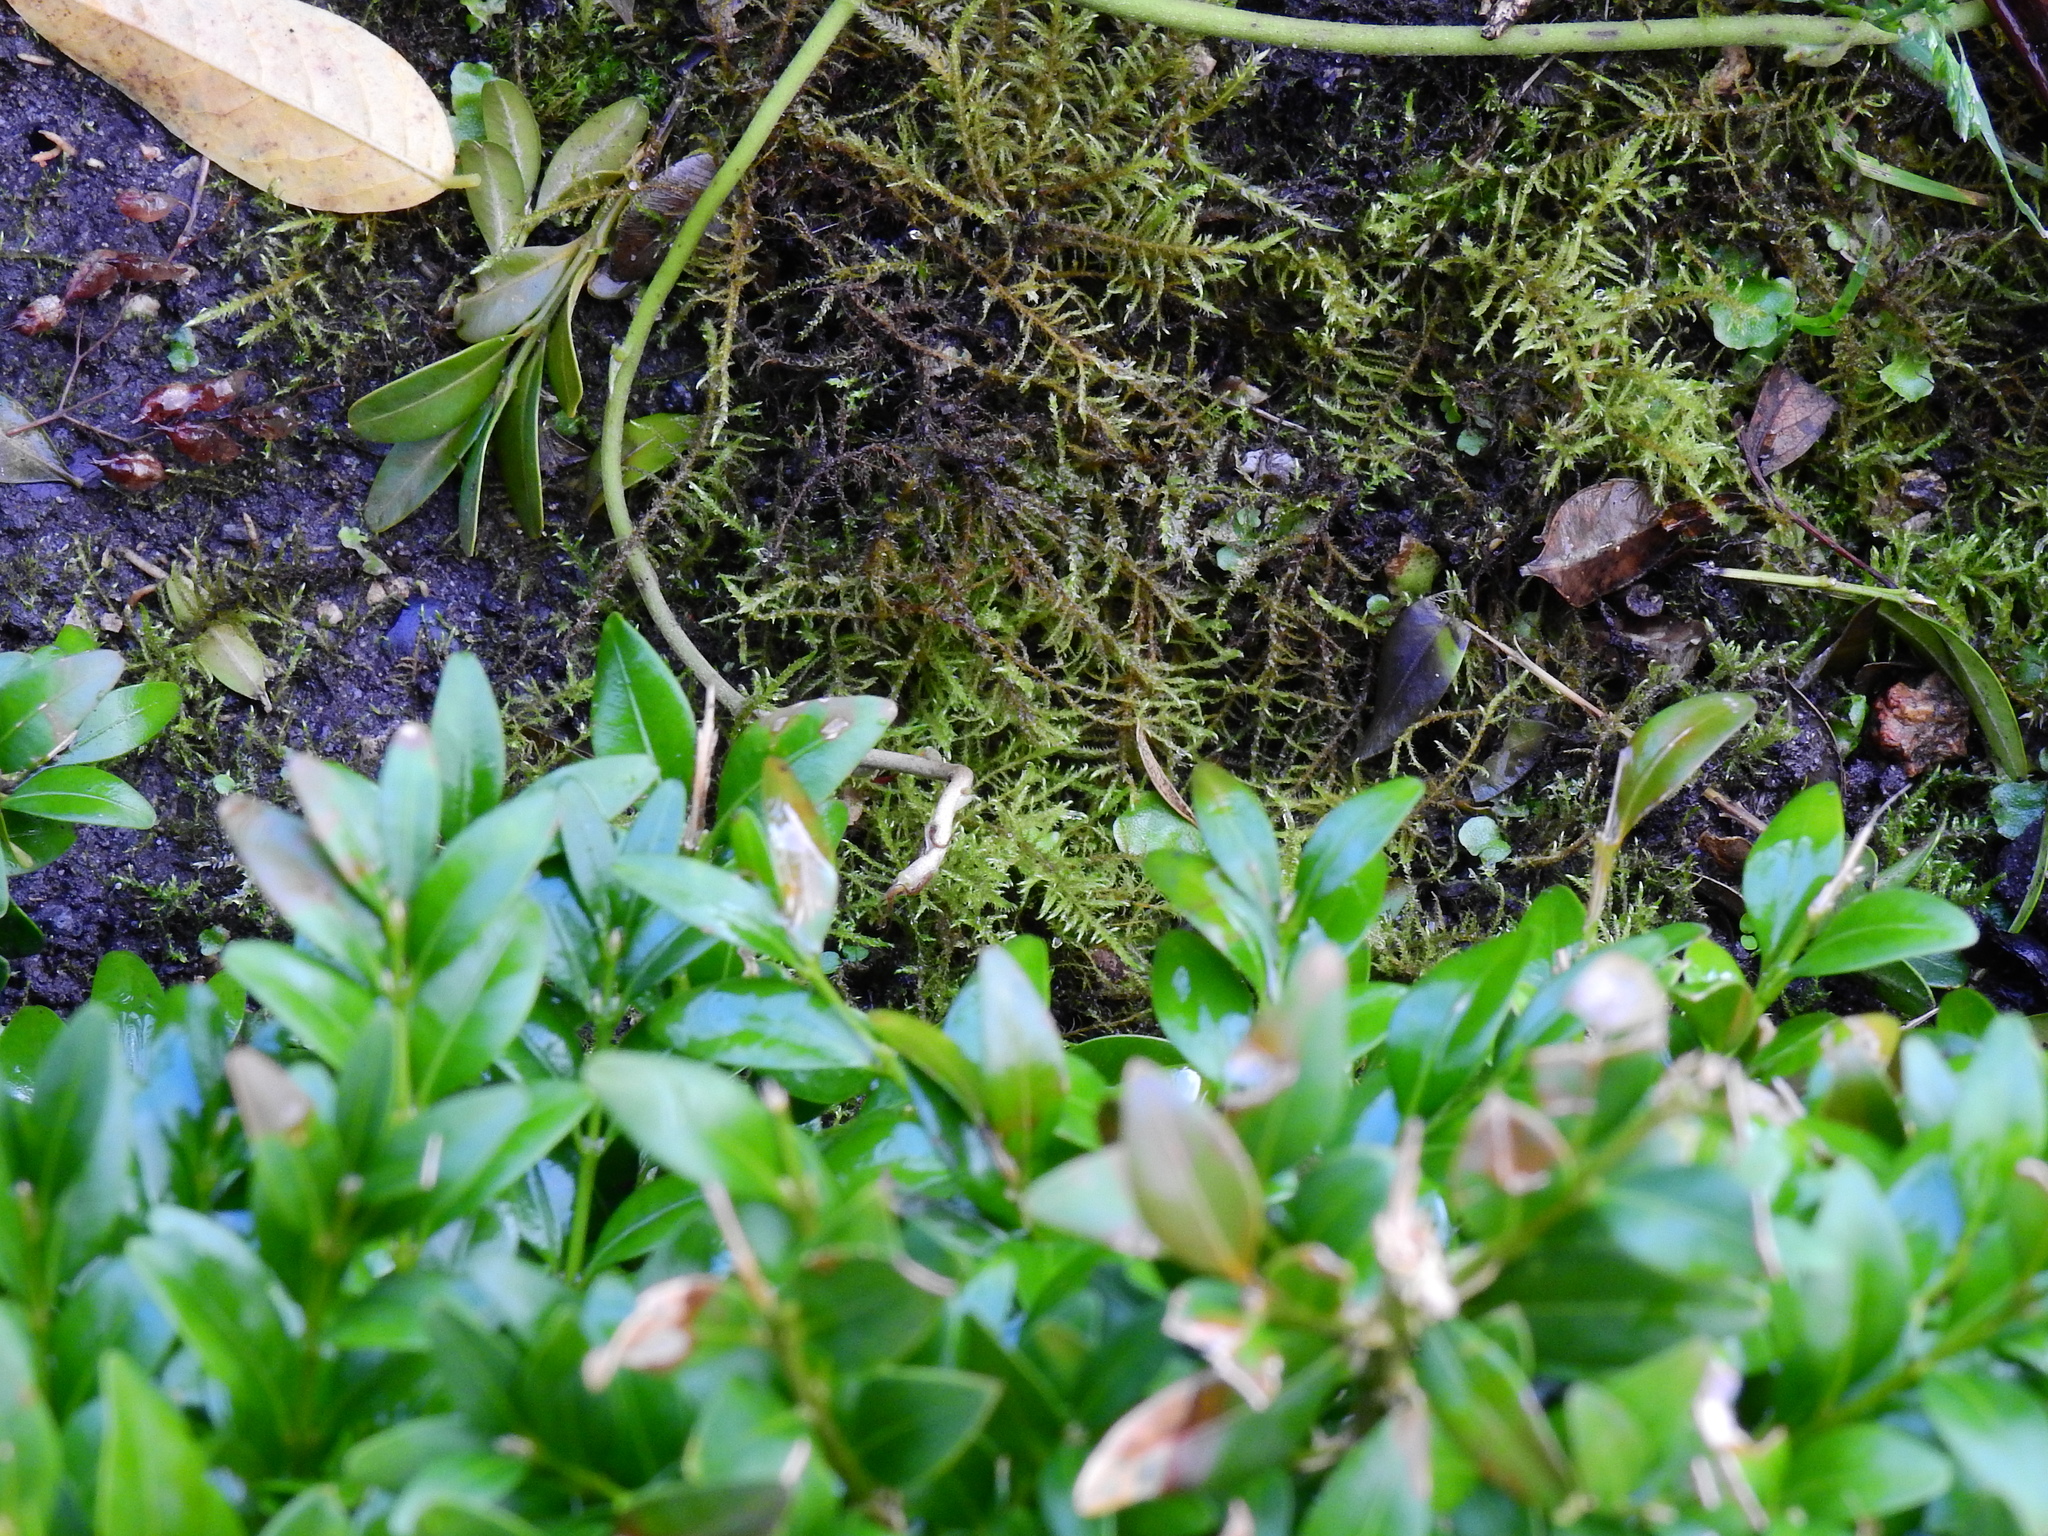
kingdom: Plantae
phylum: Bryophyta
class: Bryopsida
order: Hypnales
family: Brachytheciaceae
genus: Kindbergia
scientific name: Kindbergia praelonga
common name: Slender beaked moss
